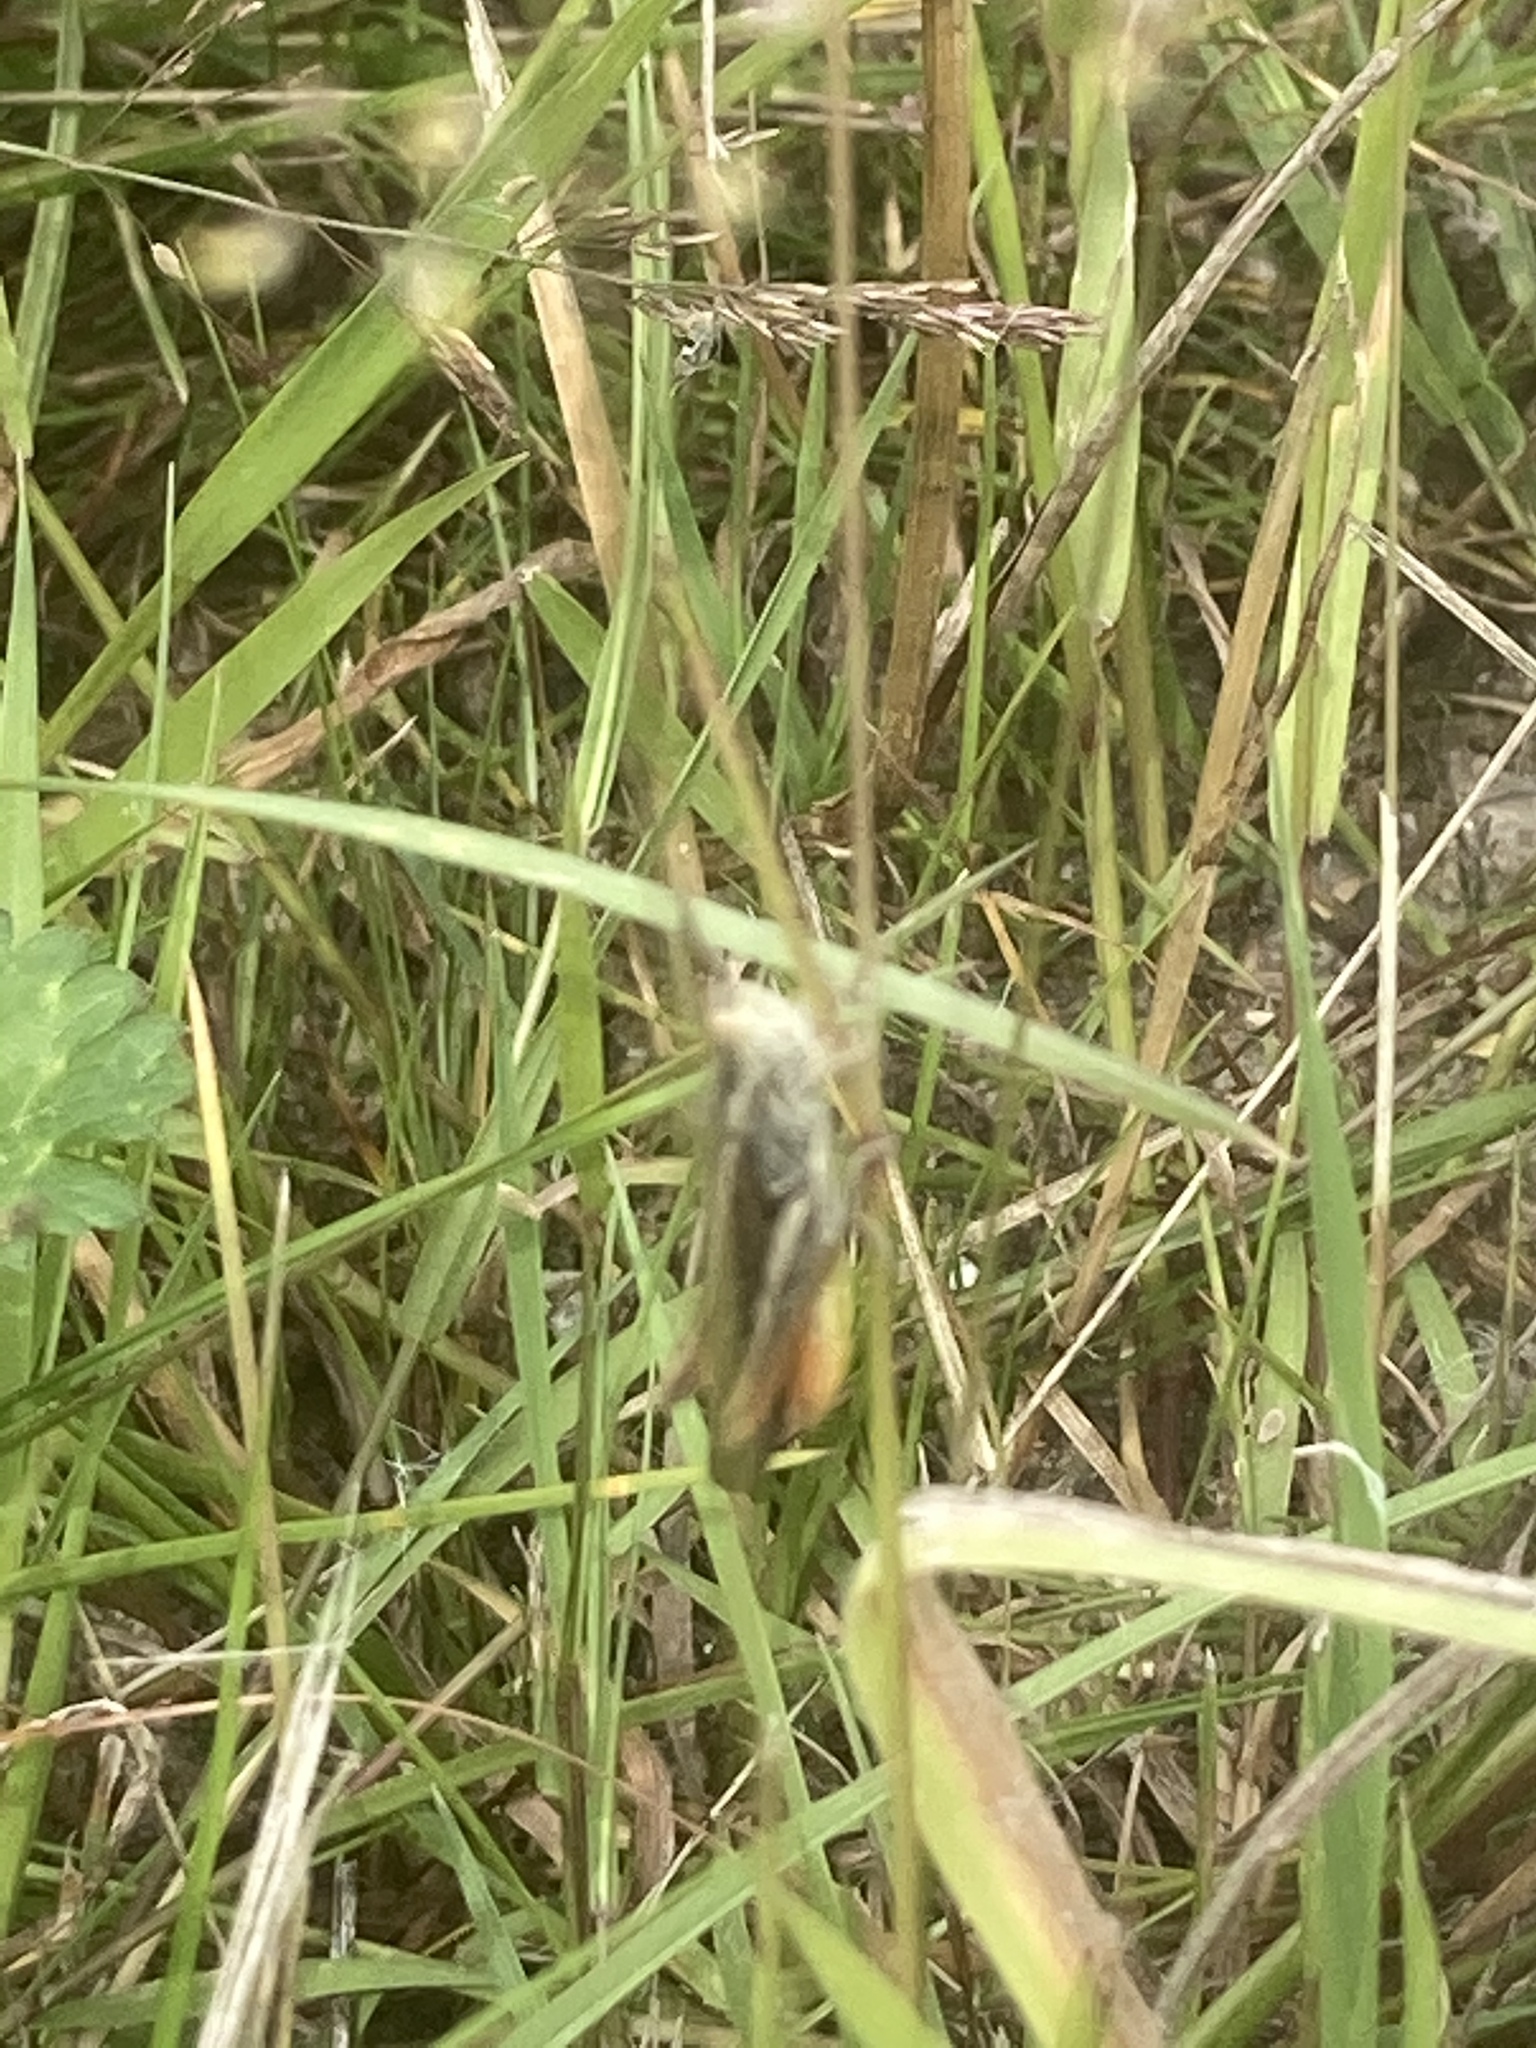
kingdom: Animalia
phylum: Arthropoda
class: Insecta
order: Orthoptera
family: Acrididae
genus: Chorthippus
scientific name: Chorthippus brunneus
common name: Field grasshopper
